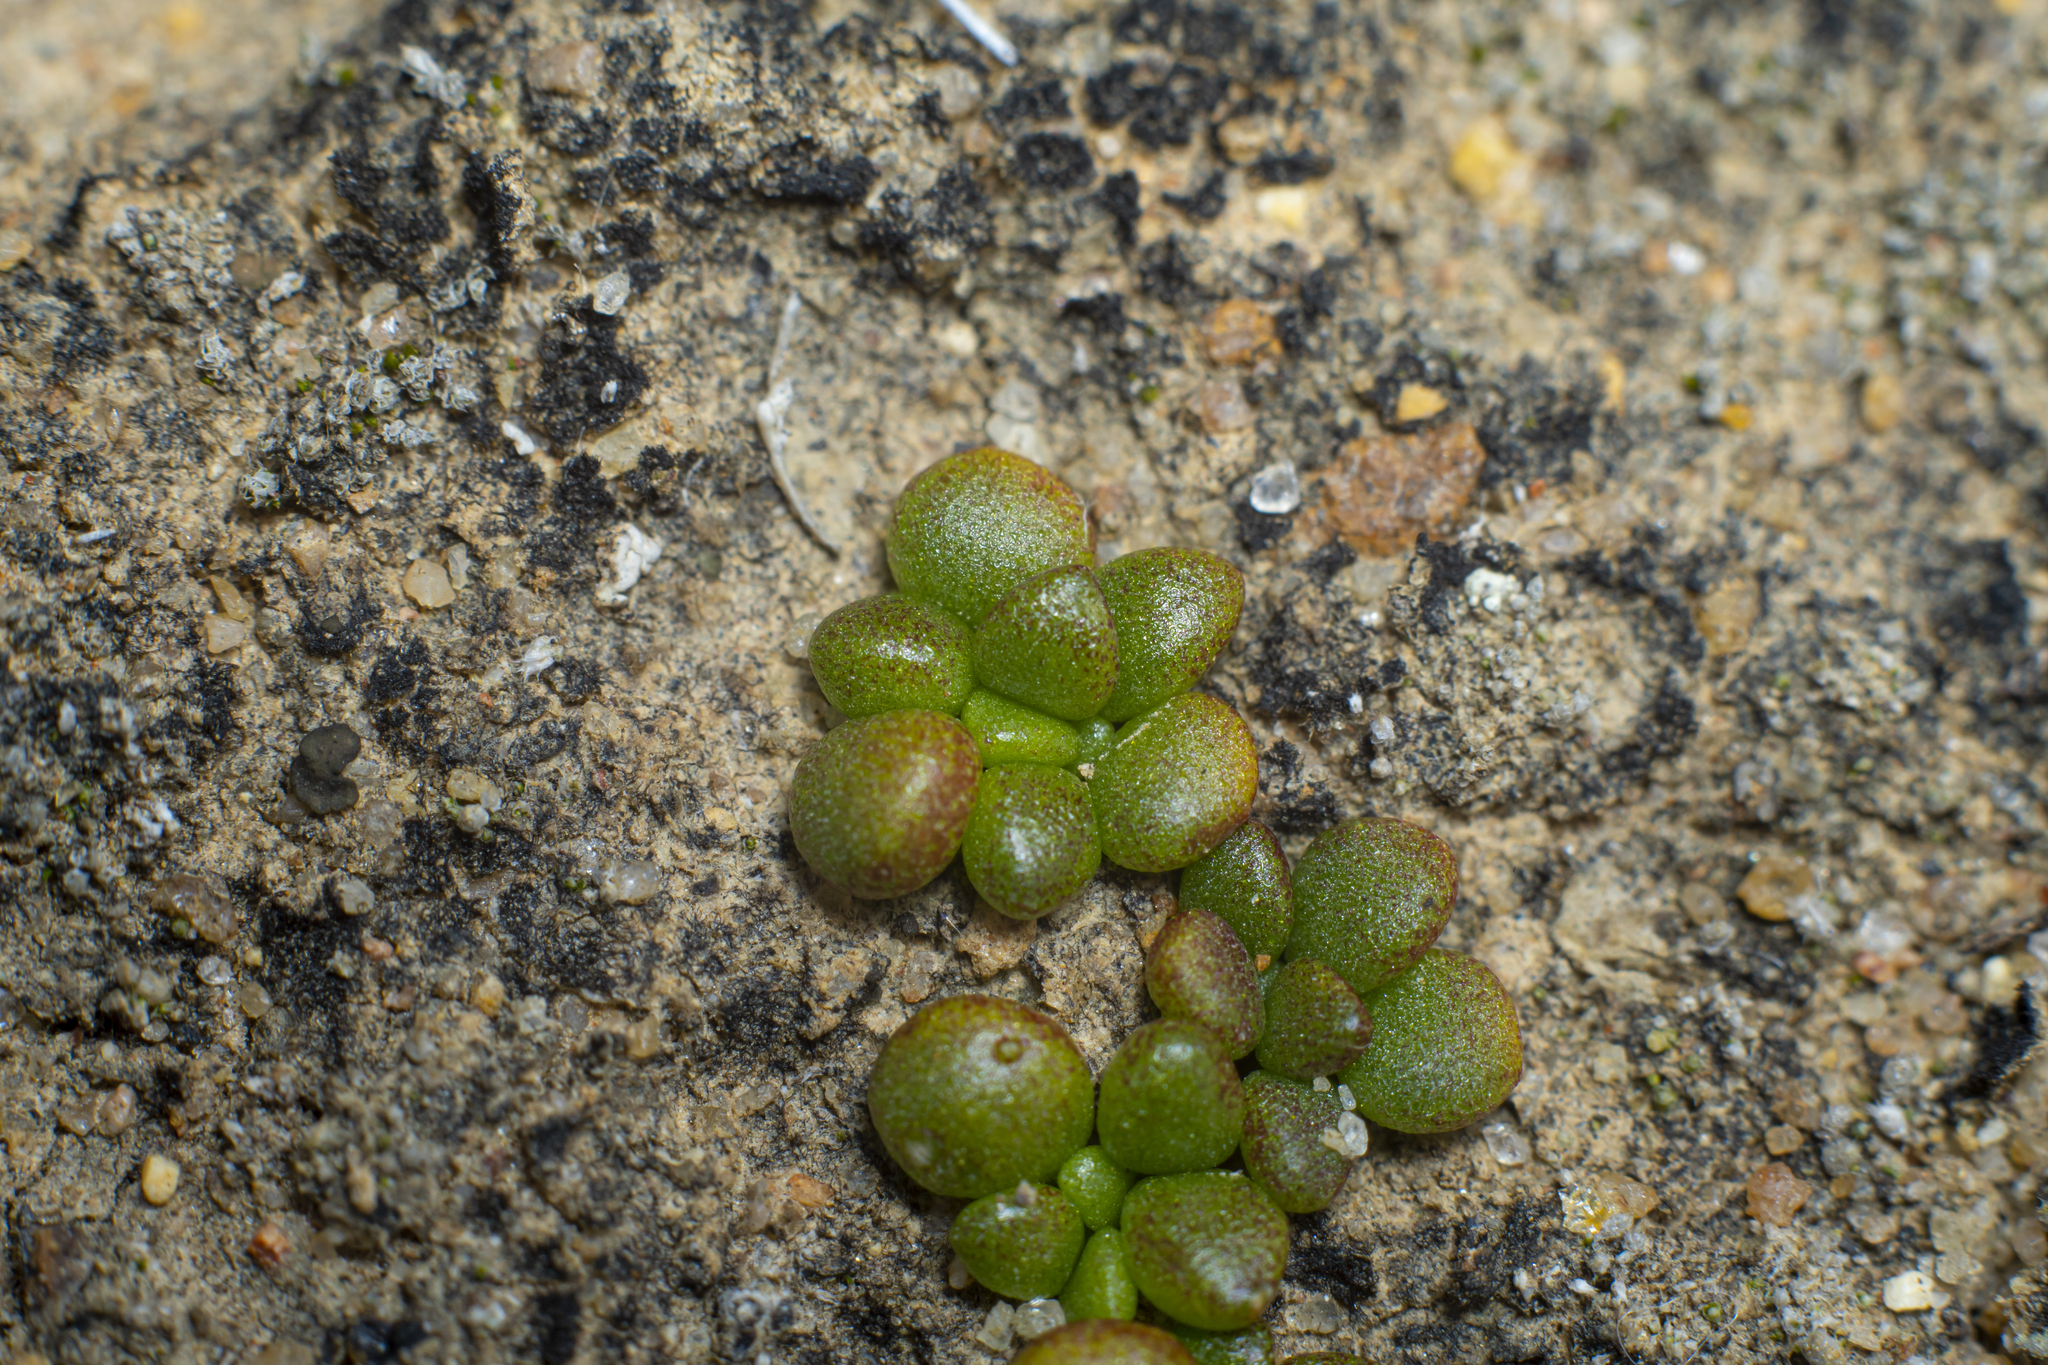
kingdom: Plantae
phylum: Tracheophyta
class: Magnoliopsida
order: Saxifragales
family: Crassulaceae
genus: Dudleya
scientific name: Dudleya blochmaniae
